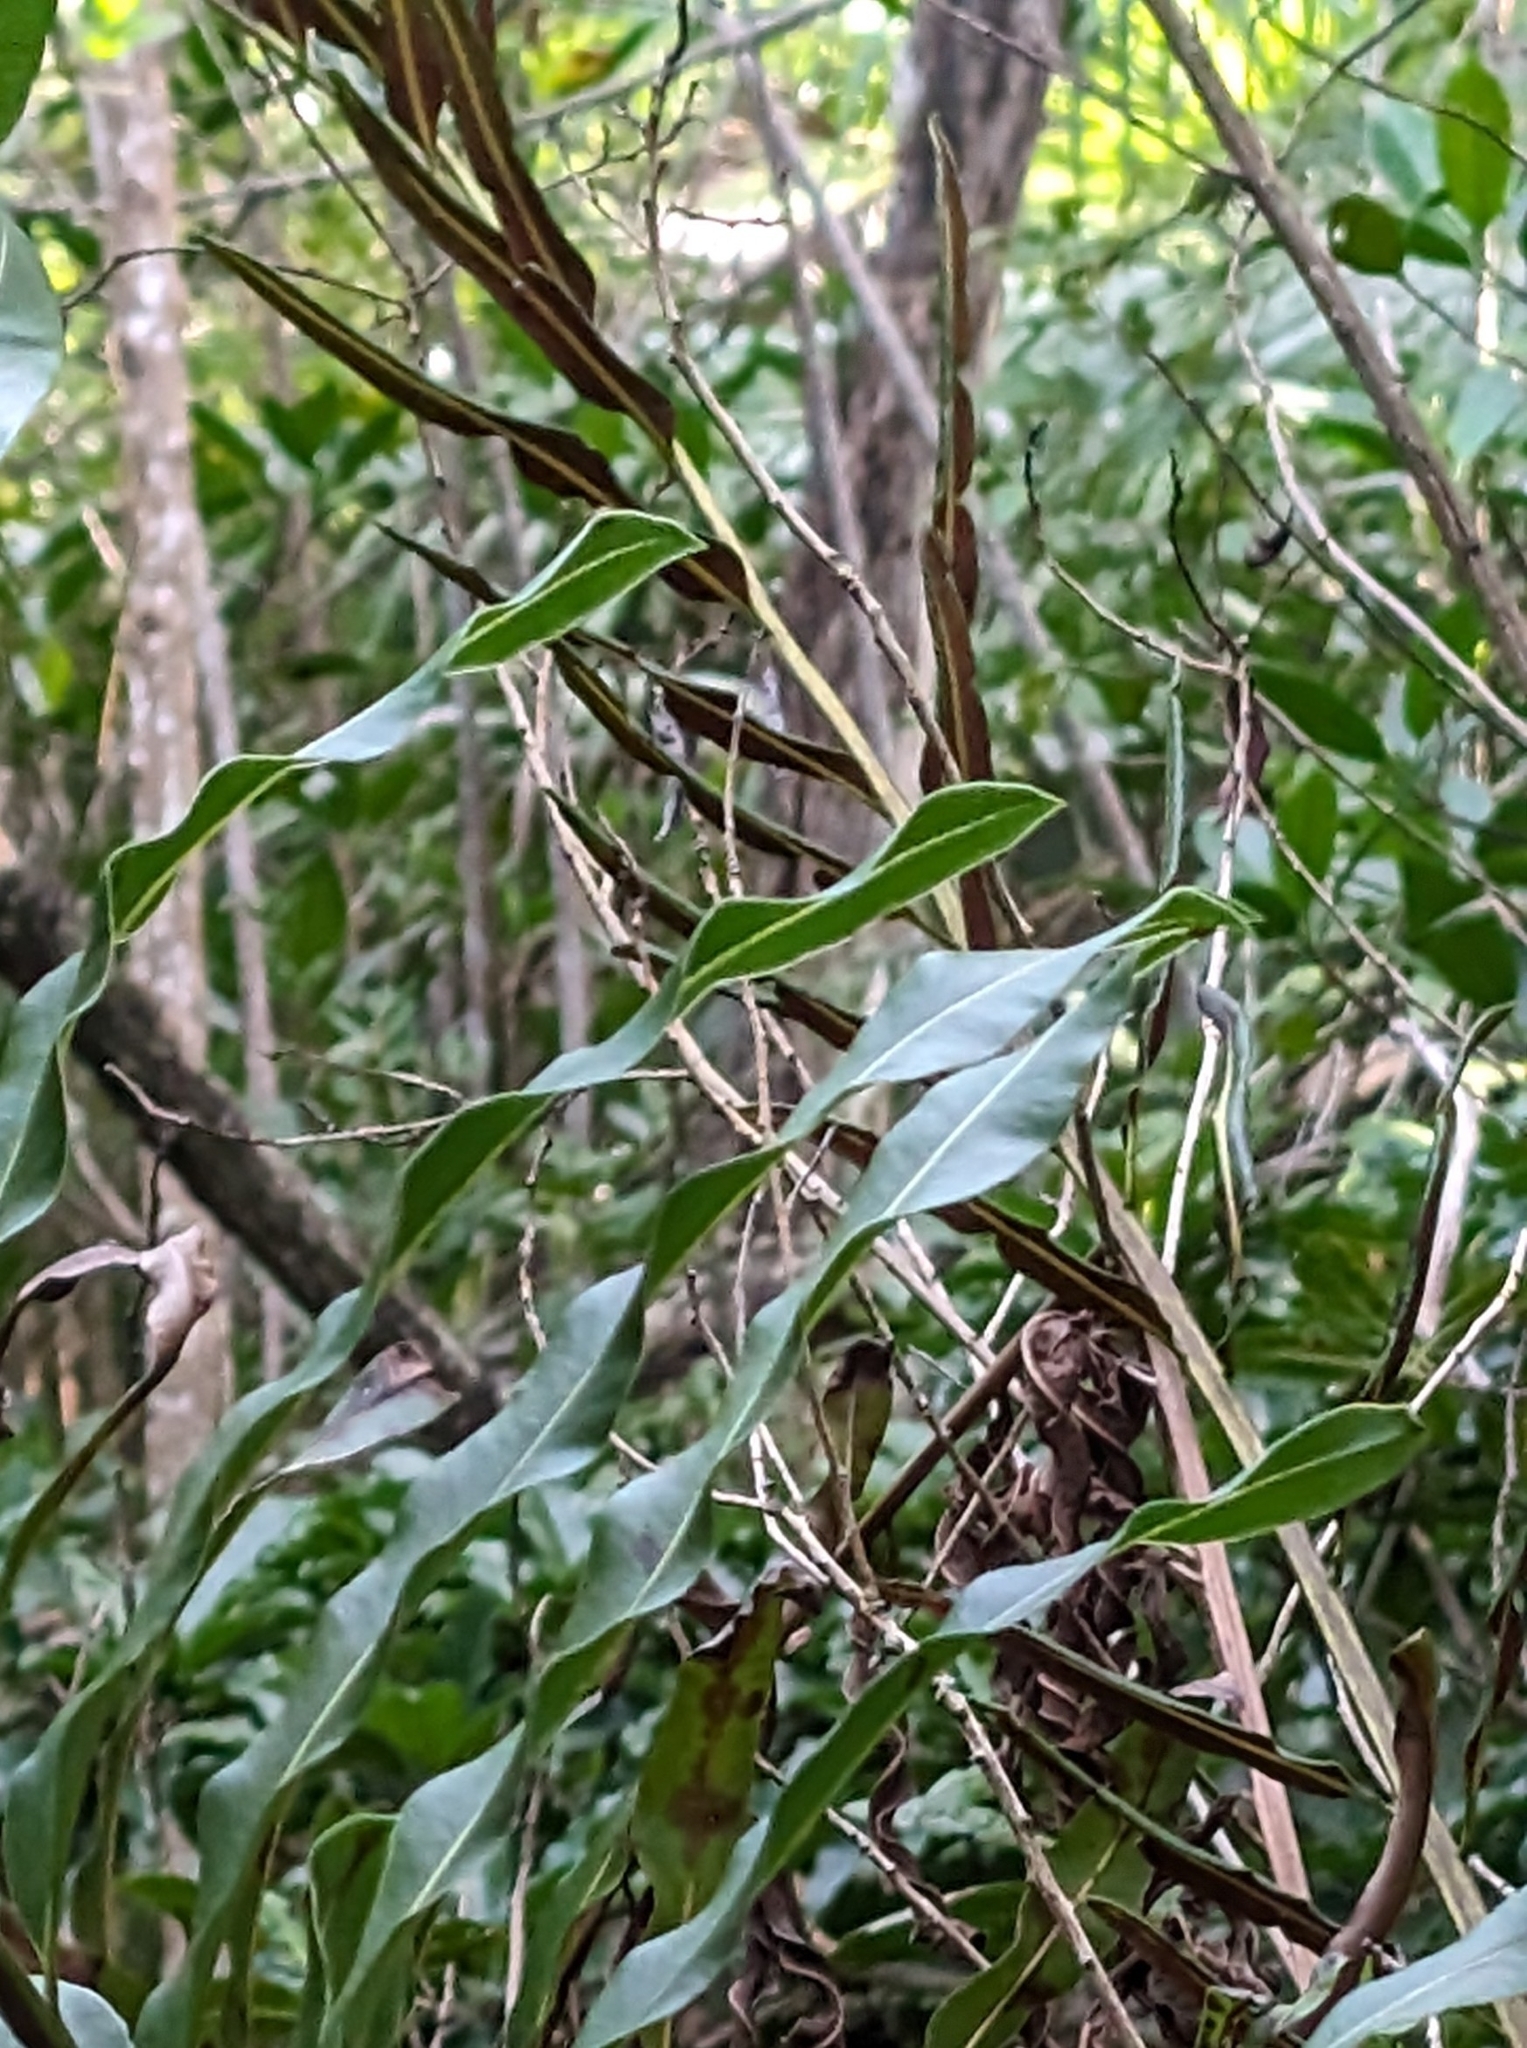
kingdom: Plantae
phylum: Tracheophyta
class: Polypodiopsida
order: Polypodiales
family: Pteridaceae
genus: Acrostichum
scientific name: Acrostichum danaeifolium
